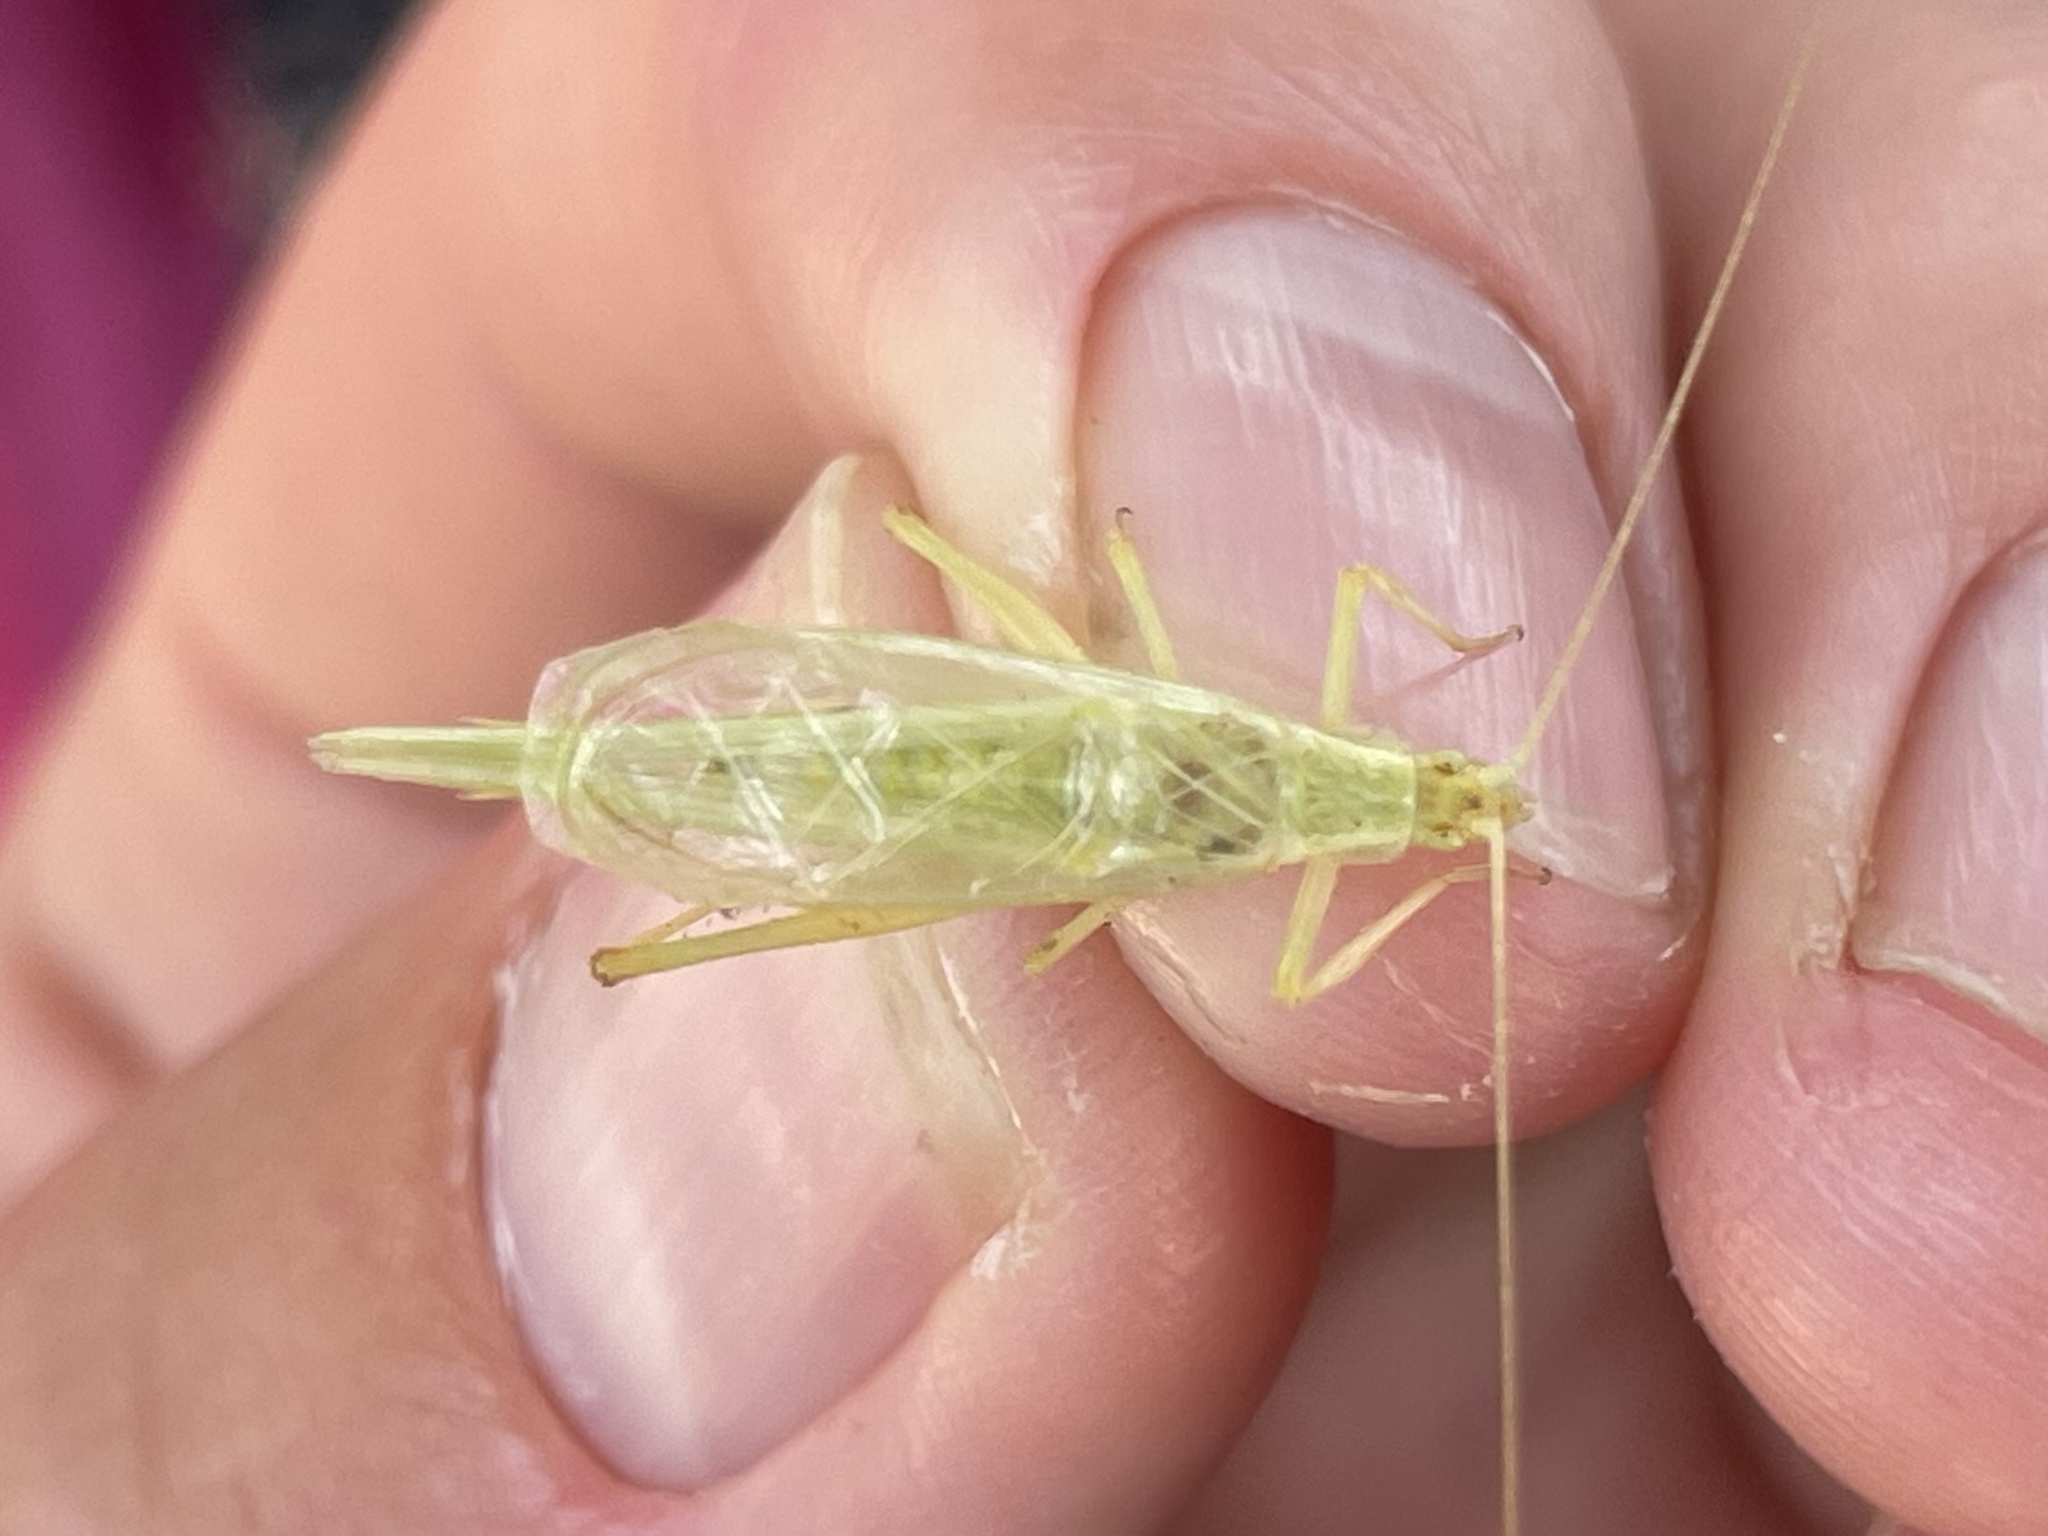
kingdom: Animalia
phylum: Arthropoda
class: Insecta
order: Orthoptera
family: Gryllidae
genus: Oecanthus
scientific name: Oecanthus argentinus
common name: Prairie tree cricket
